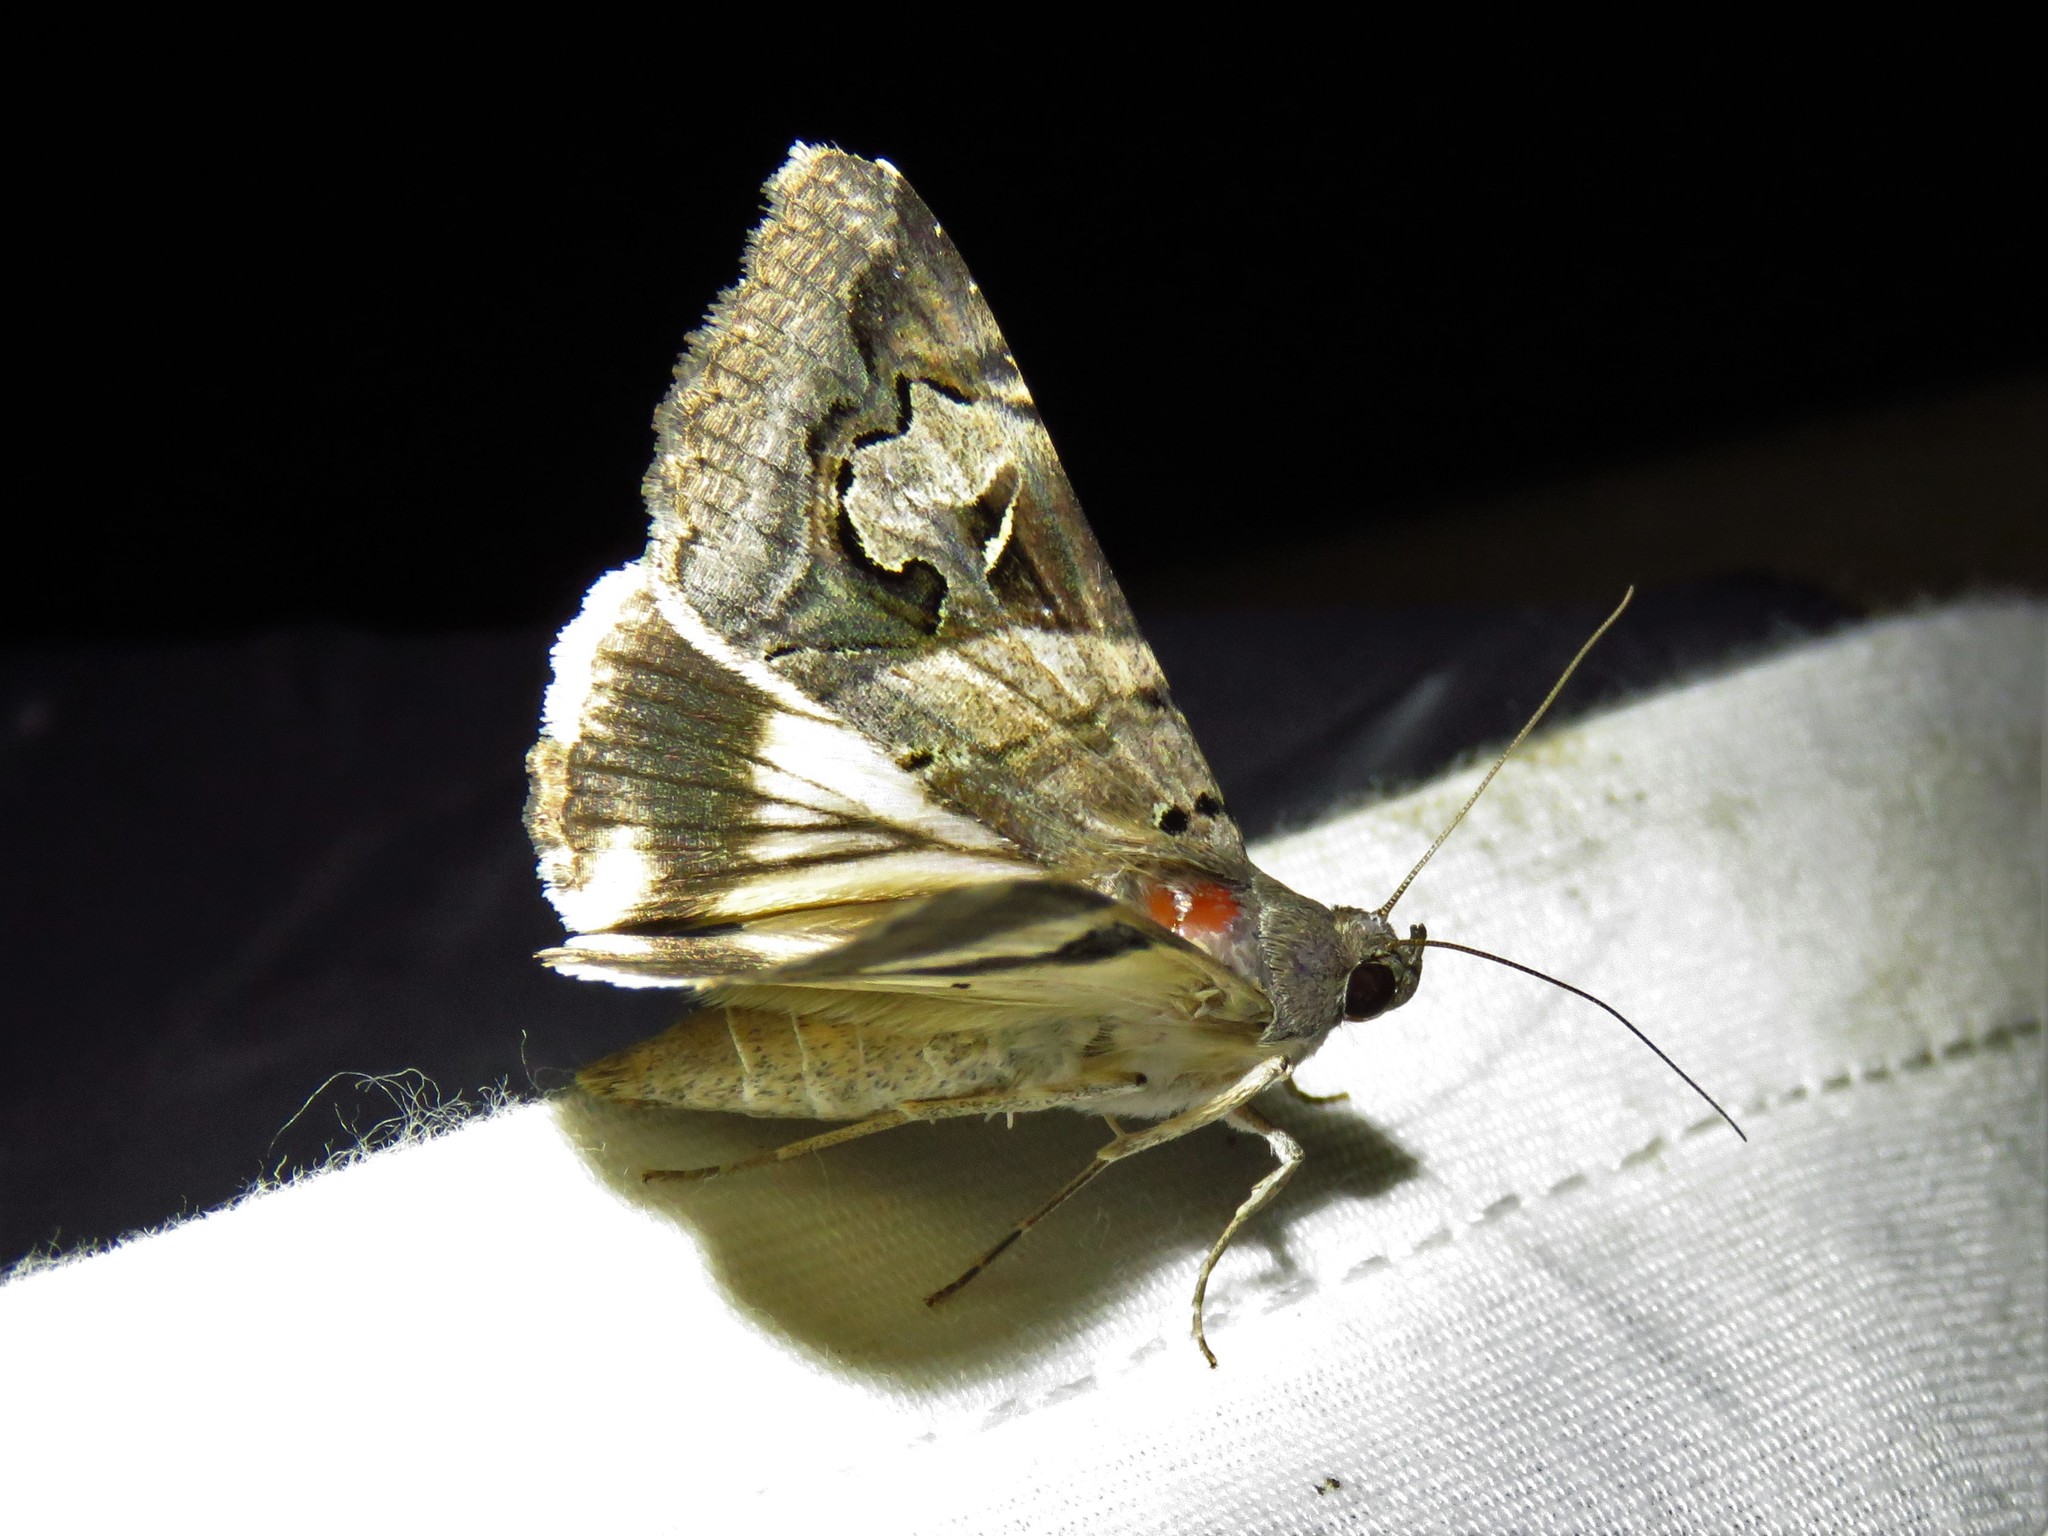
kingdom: Animalia
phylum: Arthropoda
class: Insecta
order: Lepidoptera
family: Erebidae
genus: Melipotis
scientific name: Melipotis indomita
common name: Moth
